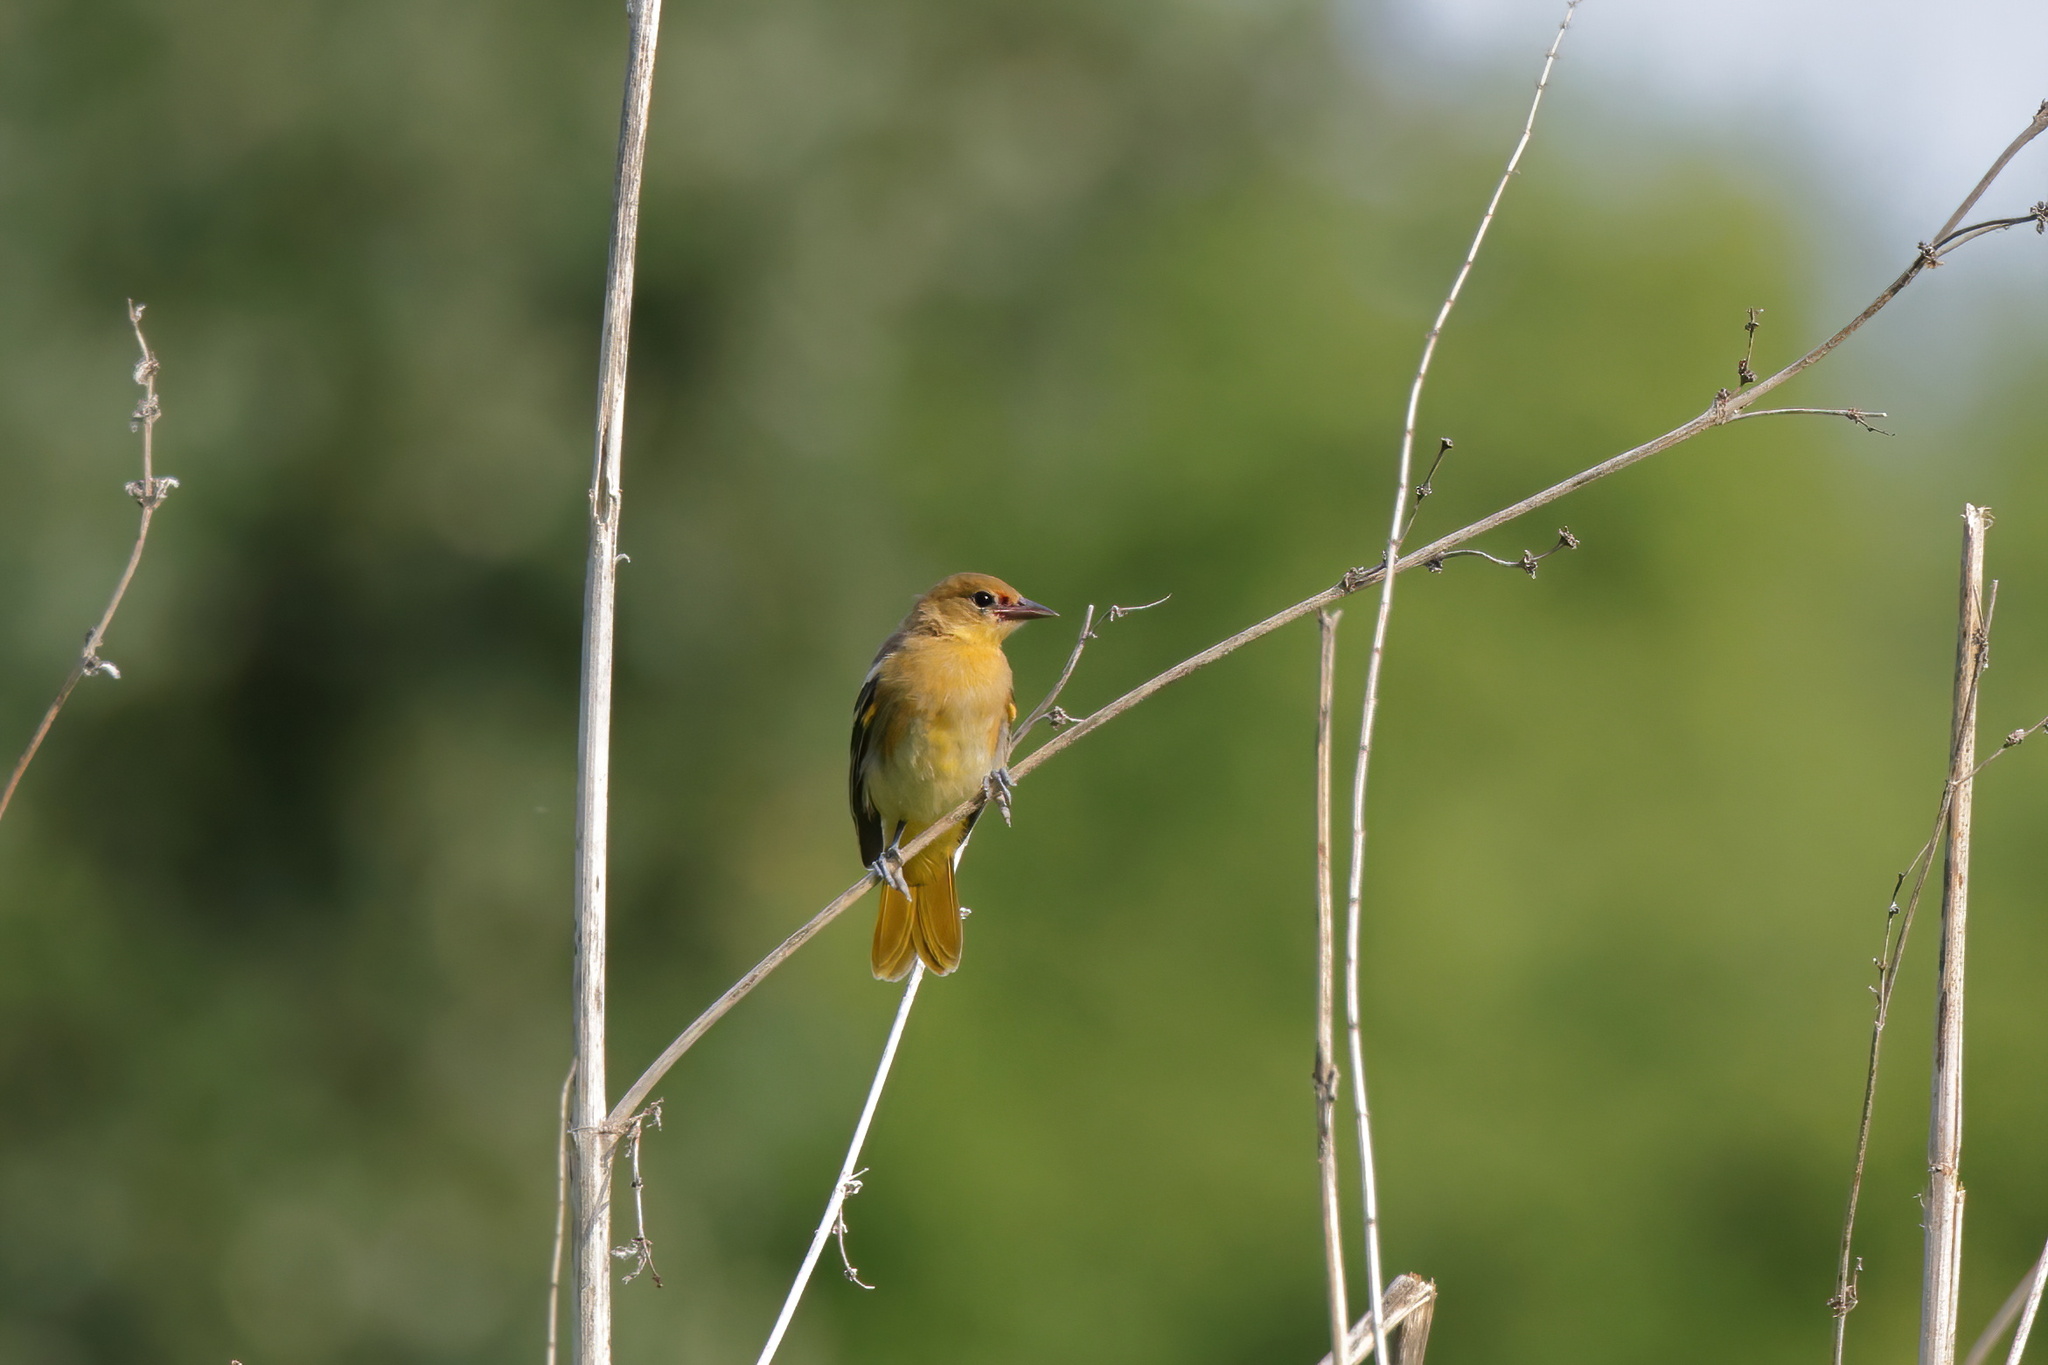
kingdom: Animalia
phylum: Chordata
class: Aves
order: Passeriformes
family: Icteridae
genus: Icterus
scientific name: Icterus galbula
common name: Baltimore oriole
